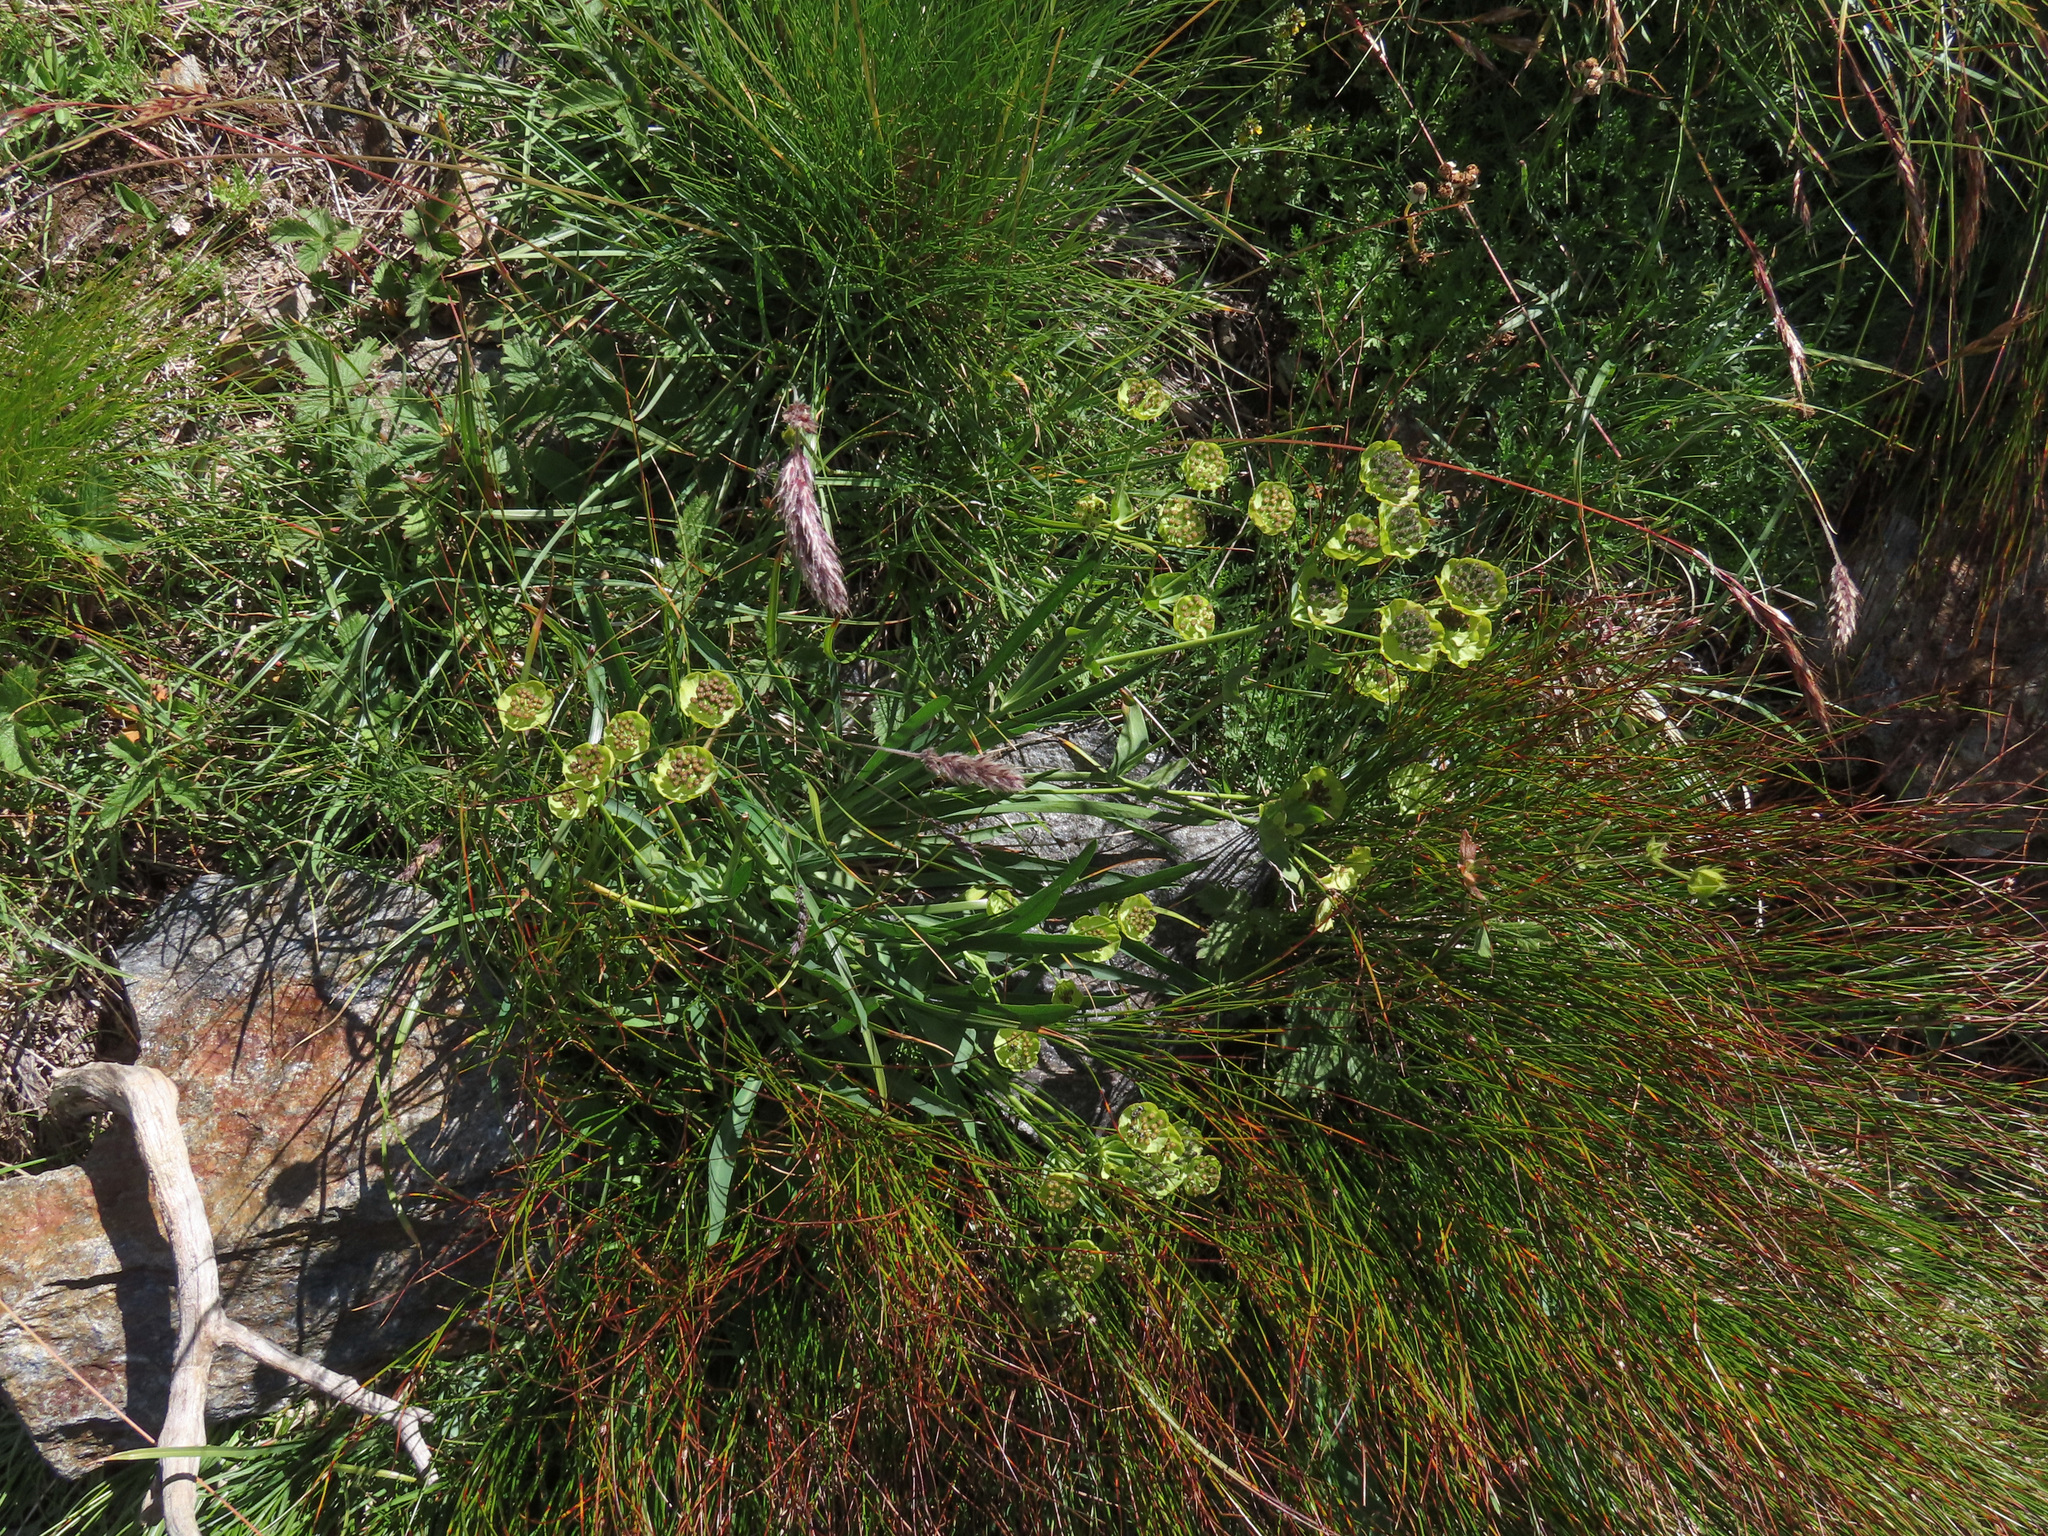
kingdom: Plantae
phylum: Tracheophyta
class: Magnoliopsida
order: Apiales
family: Apiaceae
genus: Bupleurum
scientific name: Bupleurum stellatum
